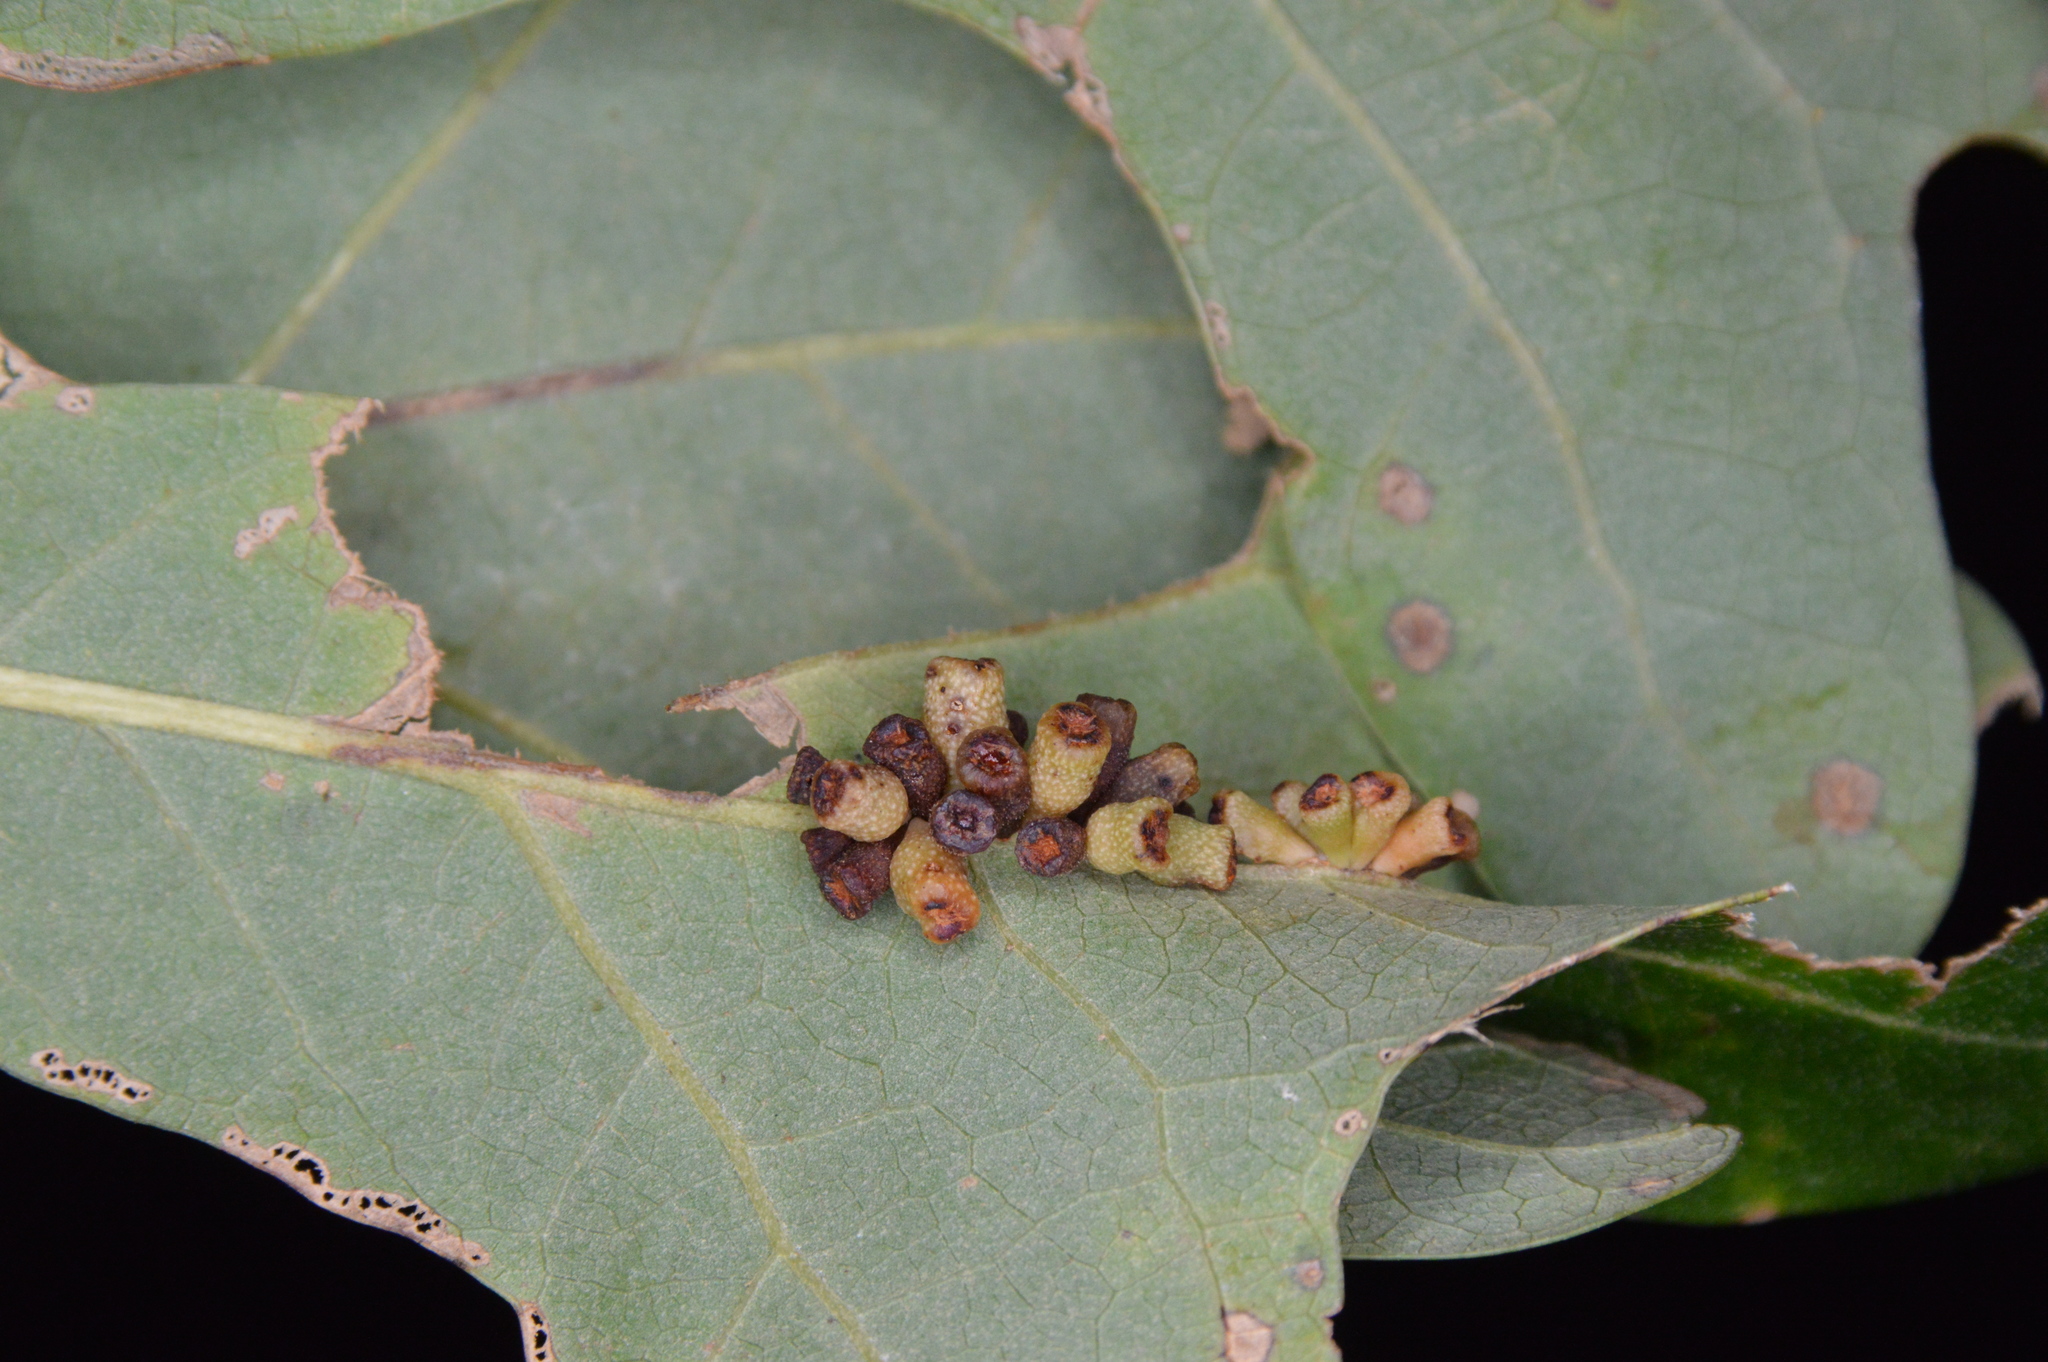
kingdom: Animalia
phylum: Arthropoda
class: Insecta
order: Hymenoptera
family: Cynipidae
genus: Andricus
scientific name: Andricus lustrans
